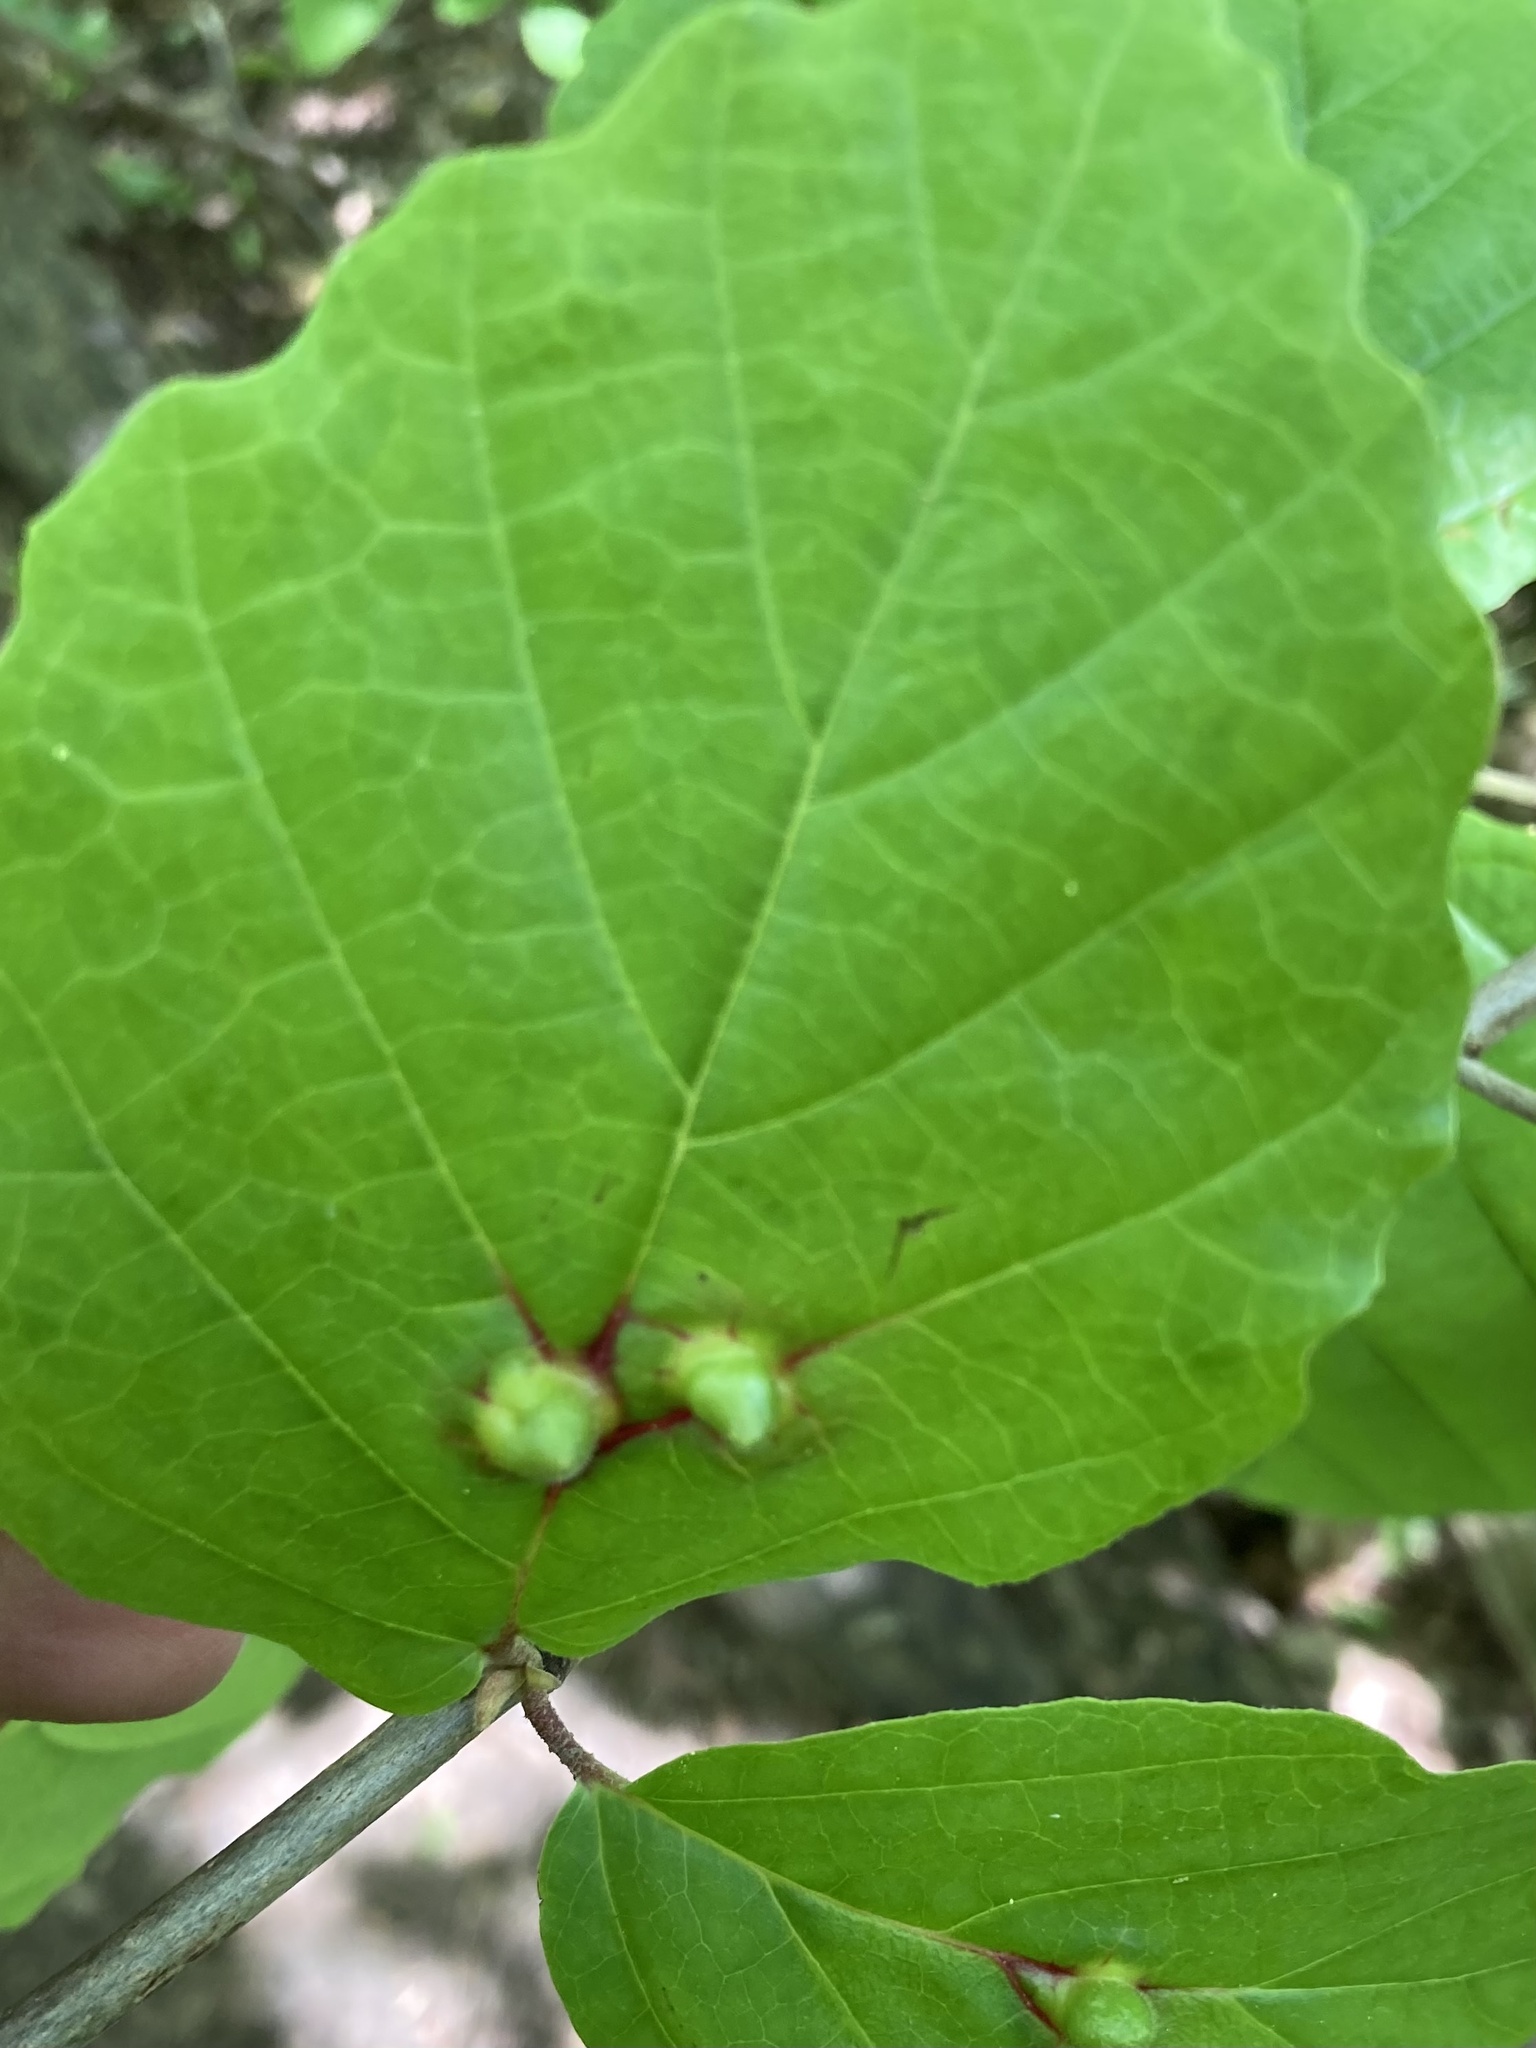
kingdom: Animalia
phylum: Arthropoda
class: Insecta
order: Hemiptera
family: Aphididae
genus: Hormaphis
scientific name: Hormaphis hamamelidis
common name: Witch-hazel cone gall aphid
